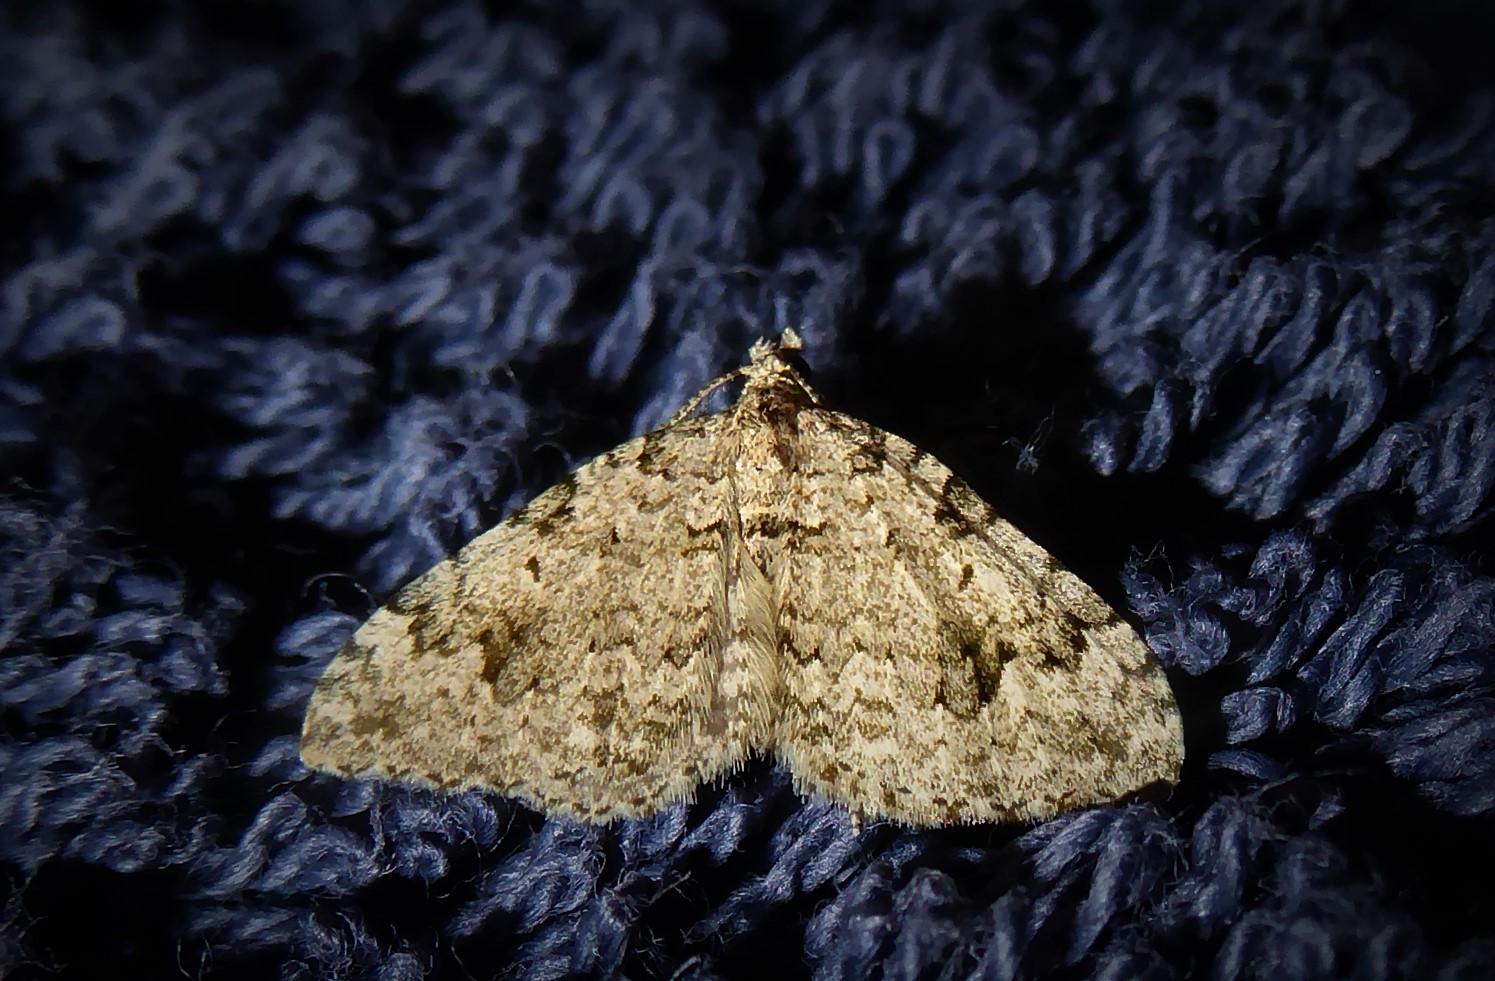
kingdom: Animalia
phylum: Arthropoda
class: Insecta
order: Lepidoptera
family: Geometridae
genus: Helastia
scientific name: Helastia cinerearia
